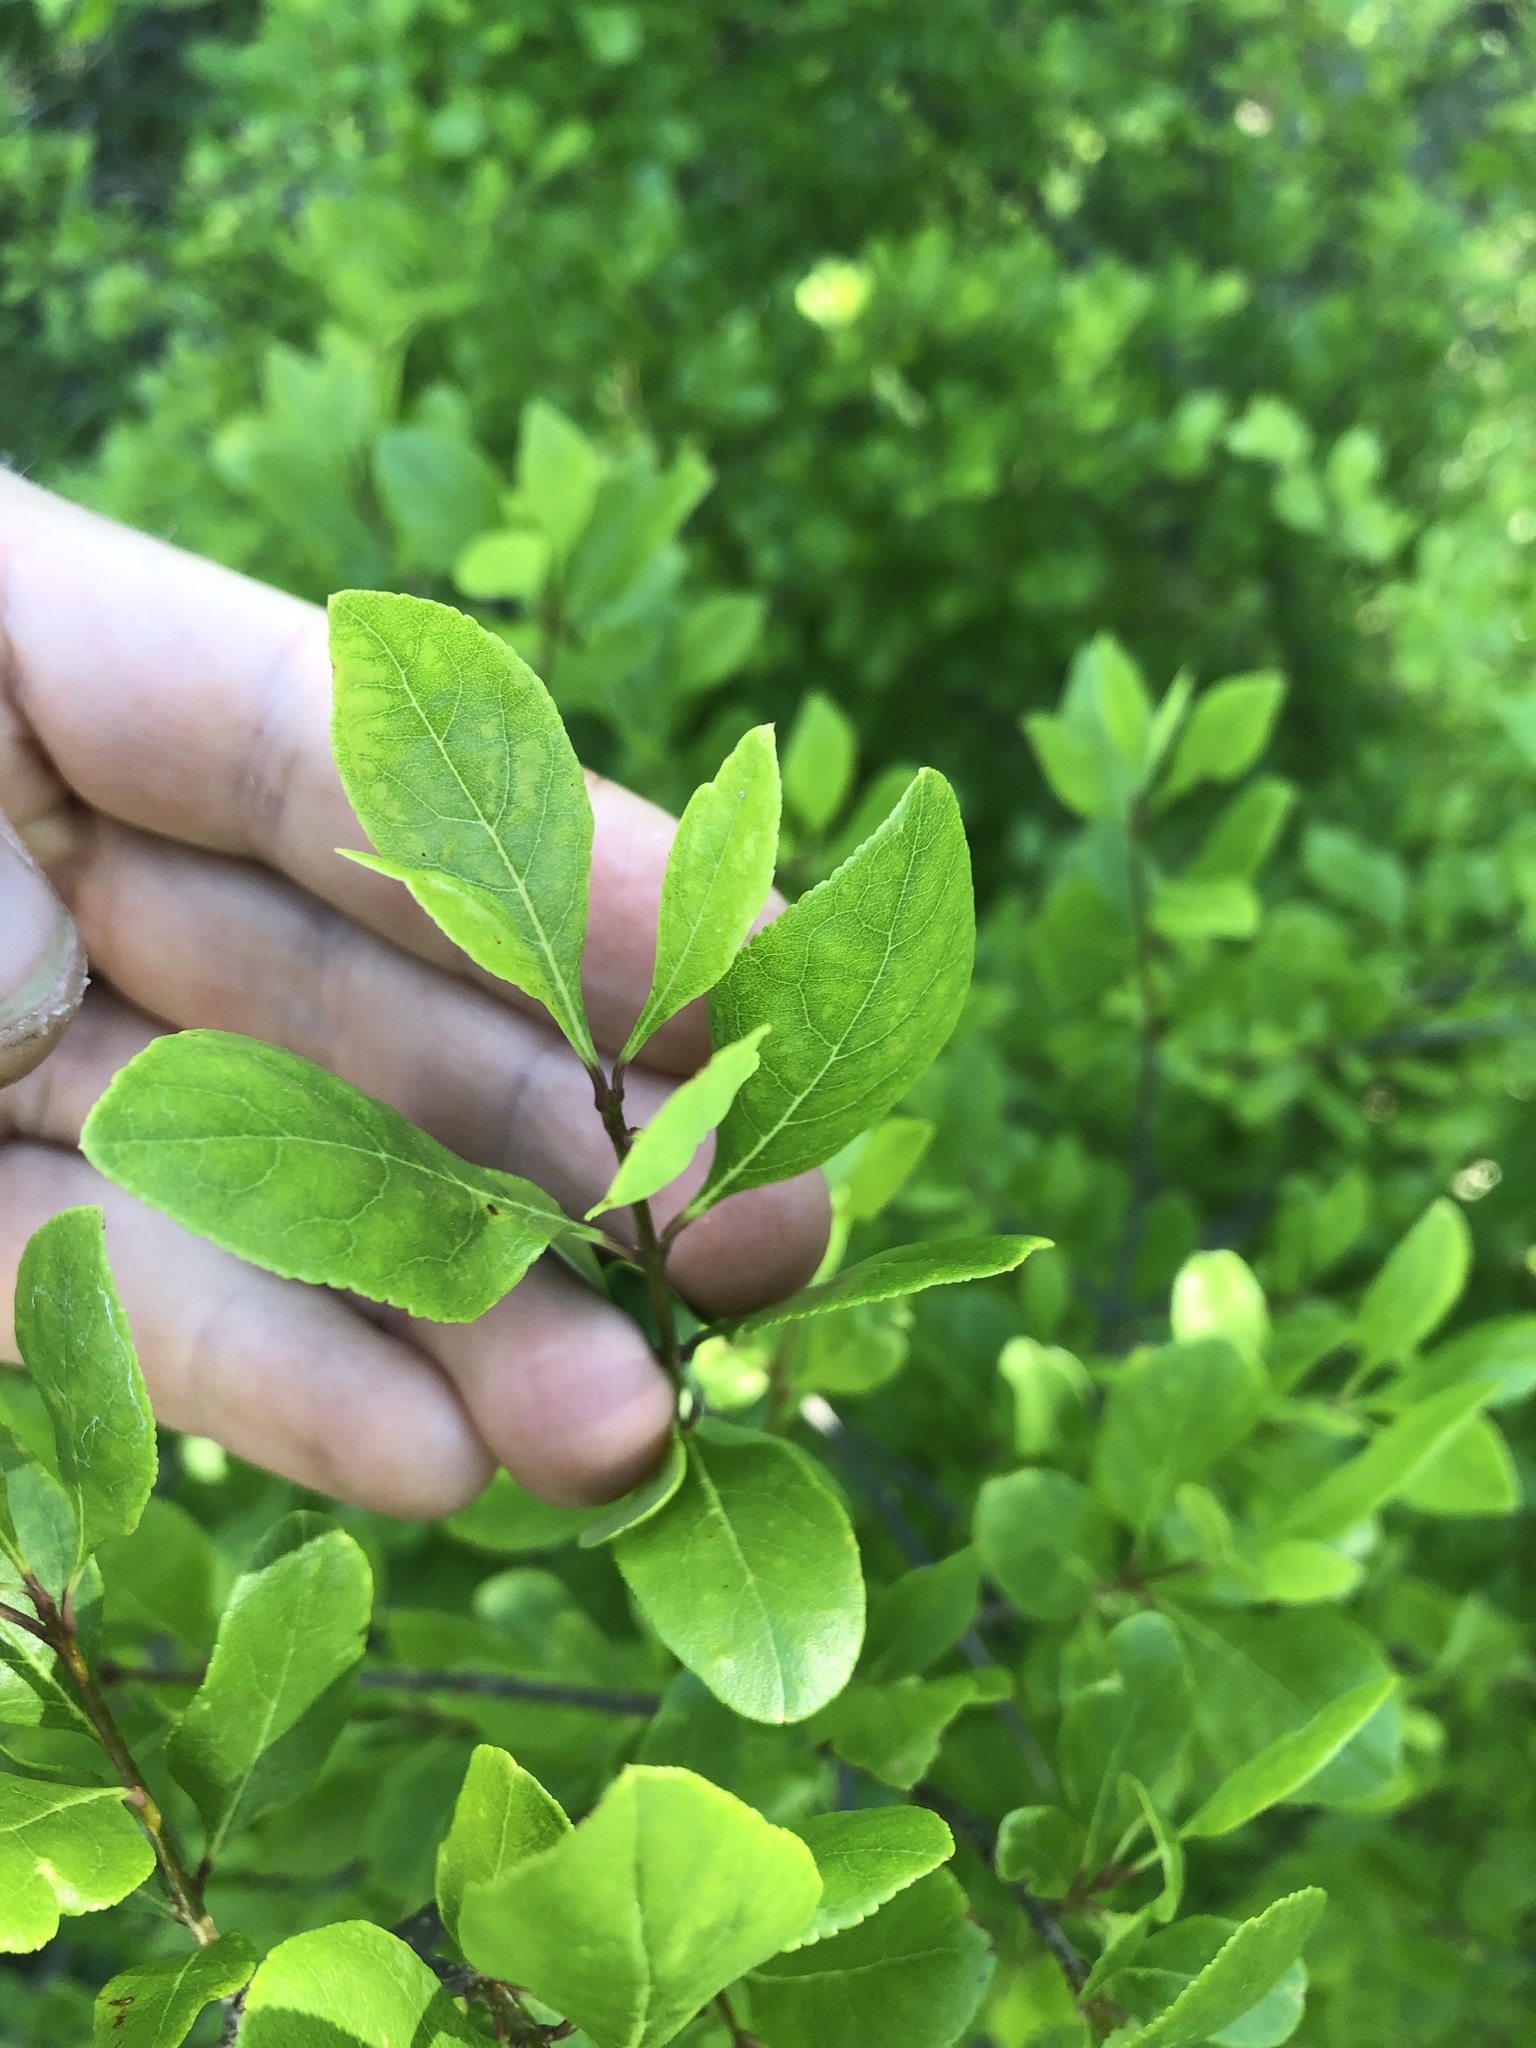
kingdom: Plantae
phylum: Tracheophyta
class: Magnoliopsida
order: Lamiales
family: Oleaceae
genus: Forestiera
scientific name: Forestiera pubescens
